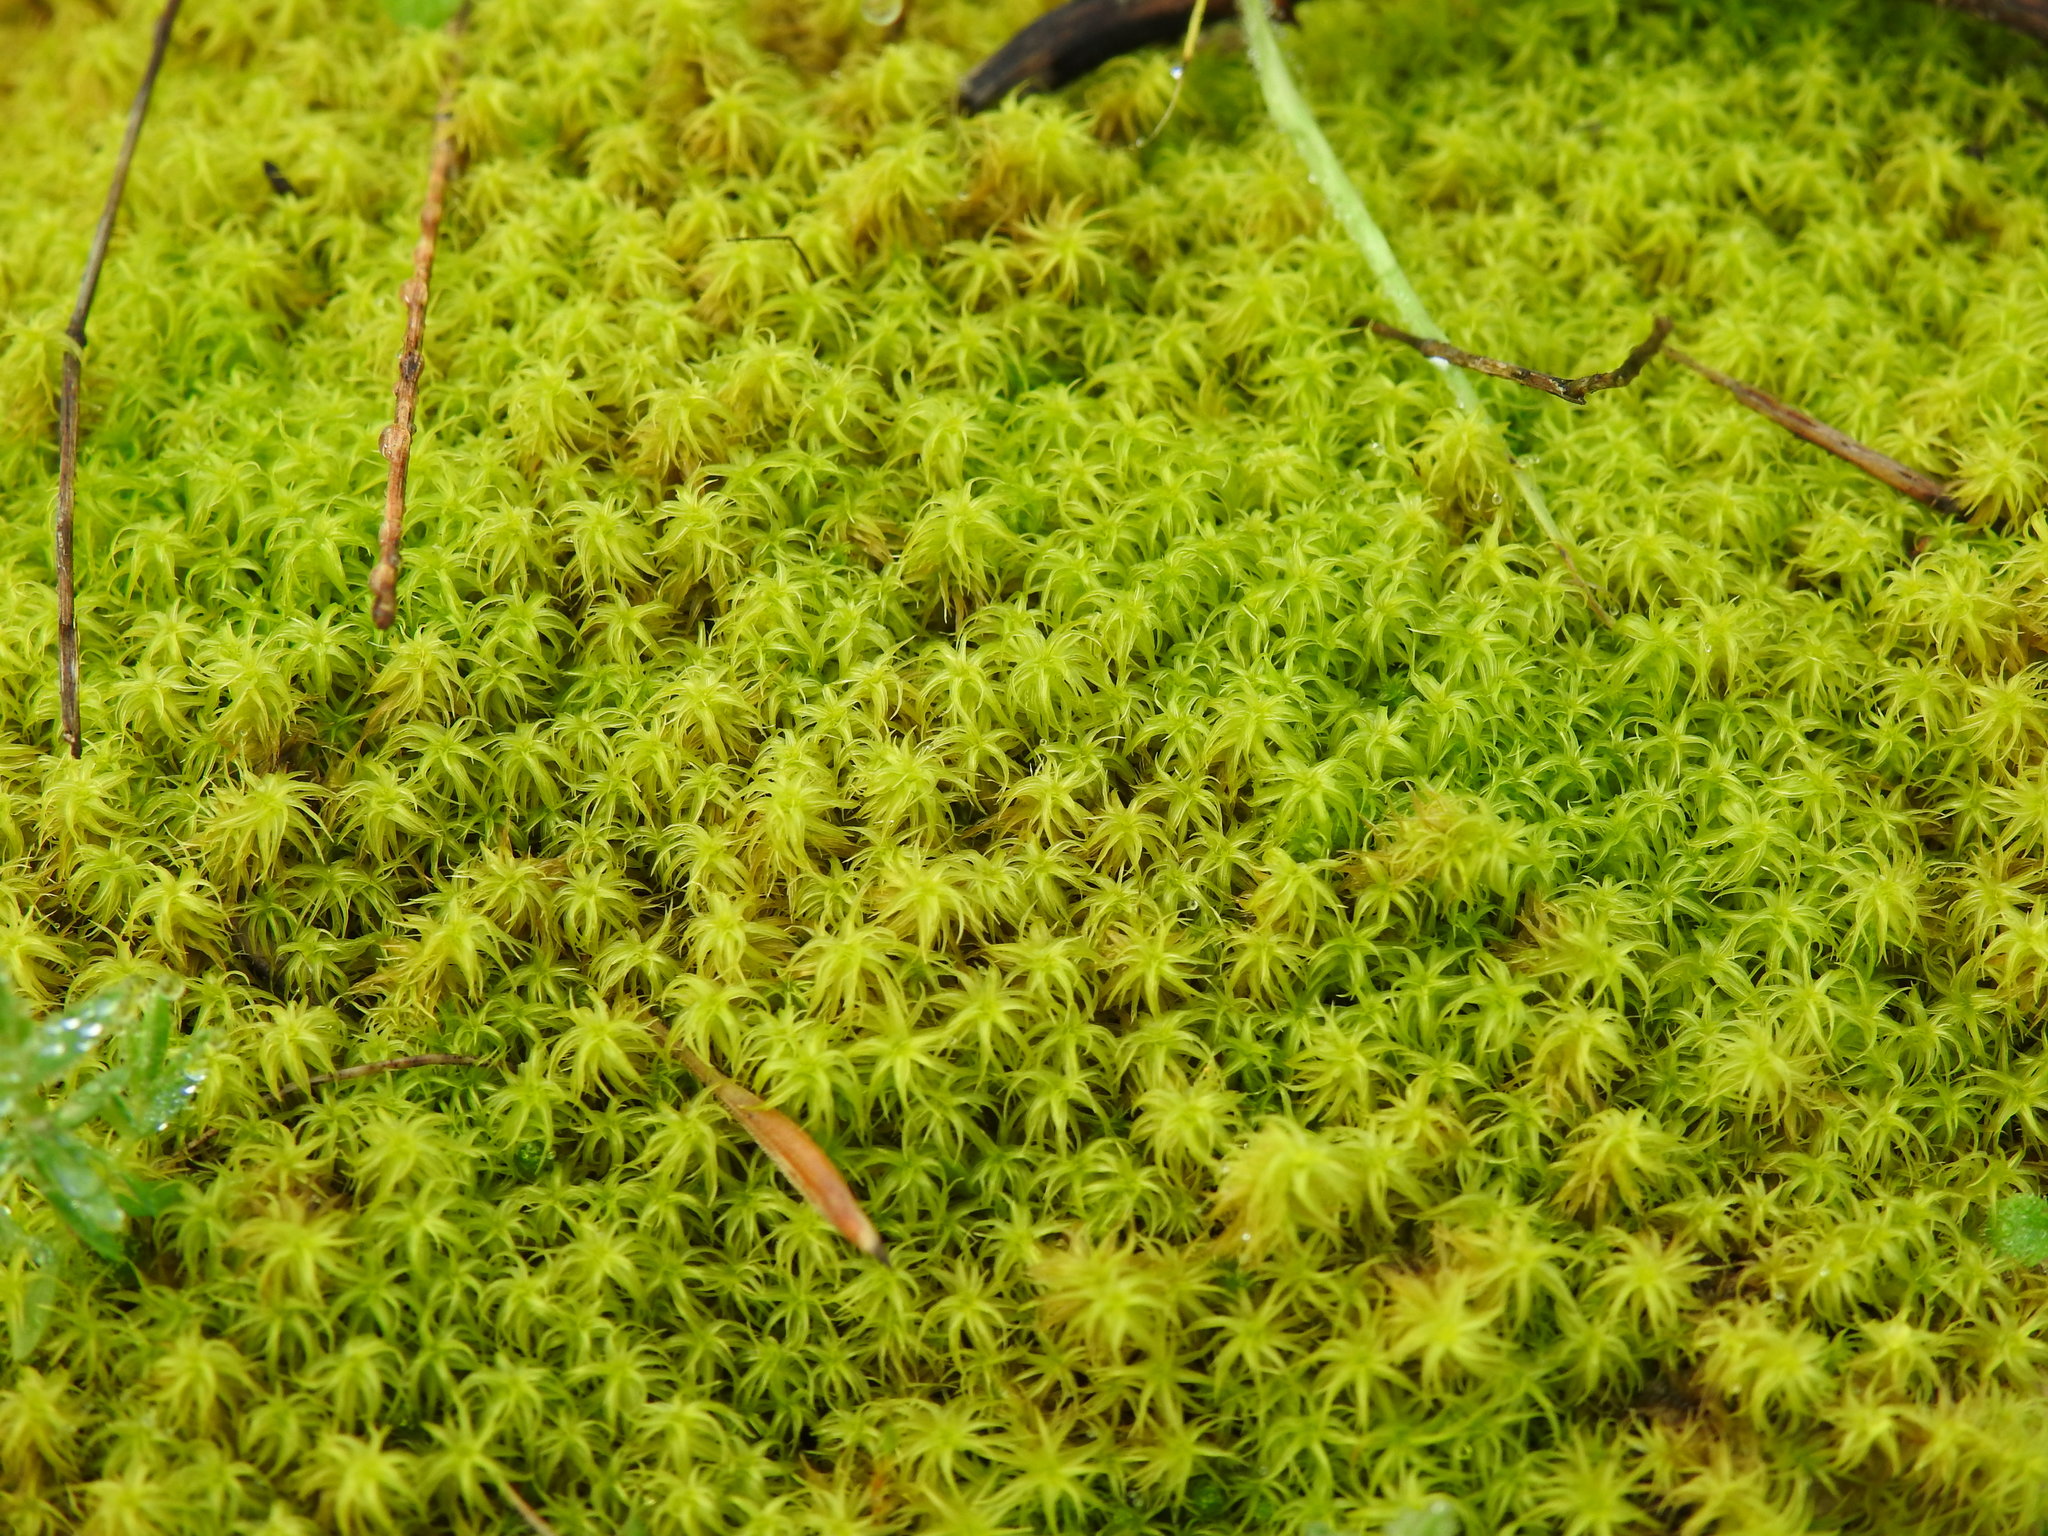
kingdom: Plantae
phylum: Bryophyta
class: Bryopsida
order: Pottiales
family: Pottiaceae
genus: Pleurochaete
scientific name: Pleurochaete squarrosa
